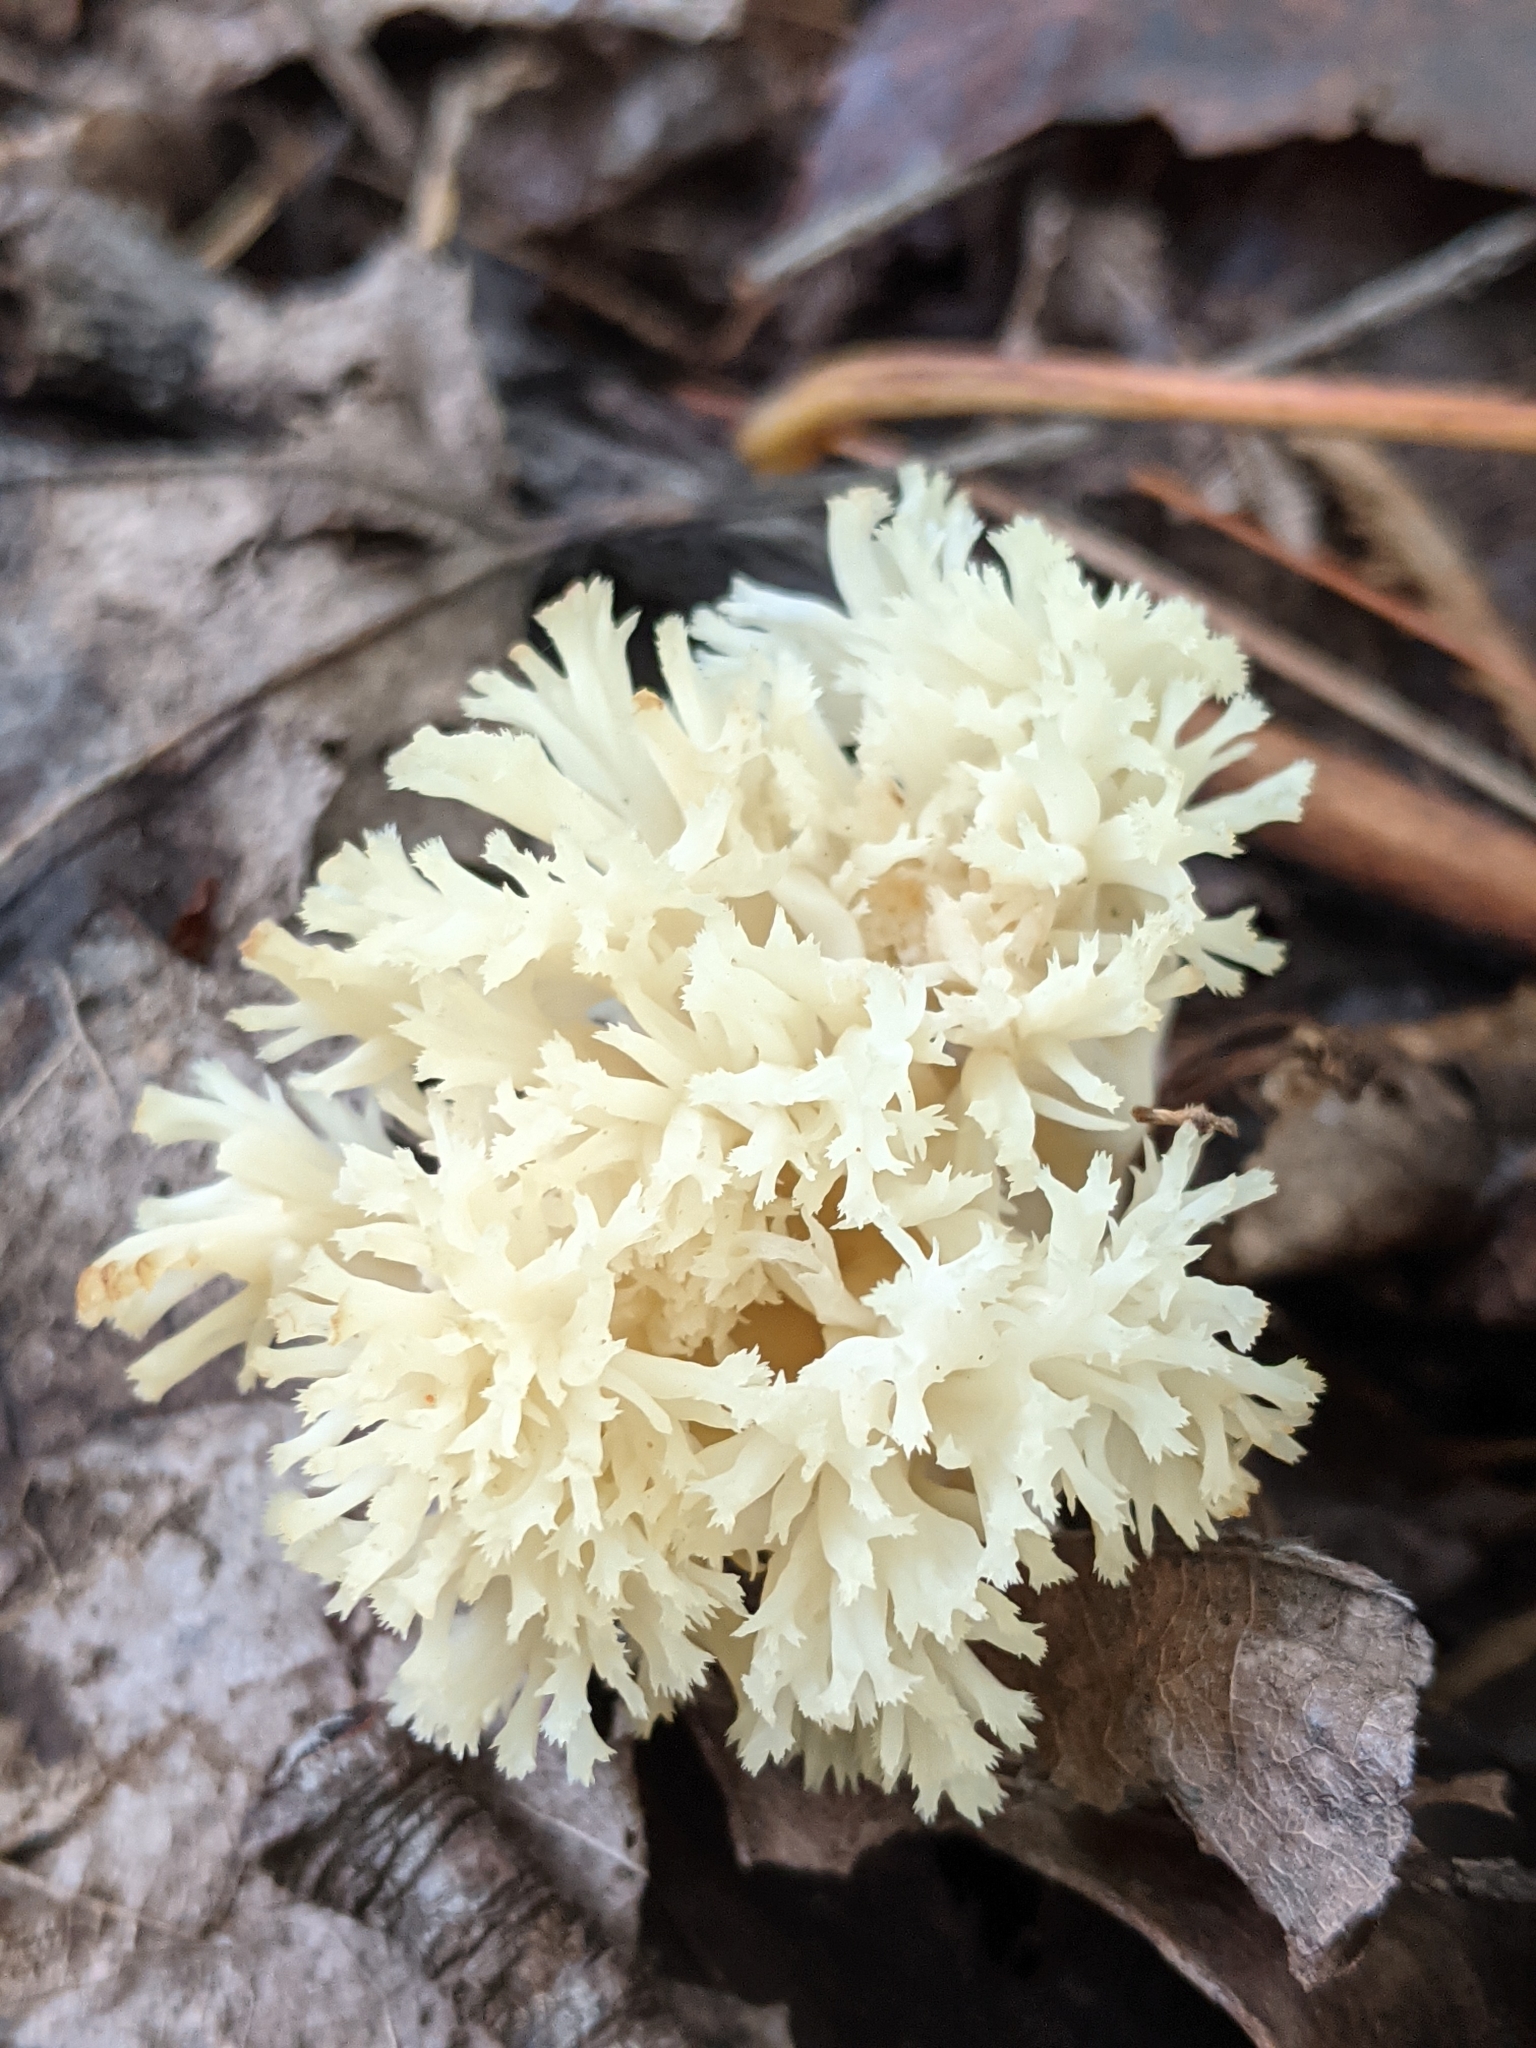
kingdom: Fungi
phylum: Basidiomycota
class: Agaricomycetes
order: Cantharellales
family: Hydnaceae
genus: Clavulina
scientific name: Clavulina coralloides
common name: Crested coral
